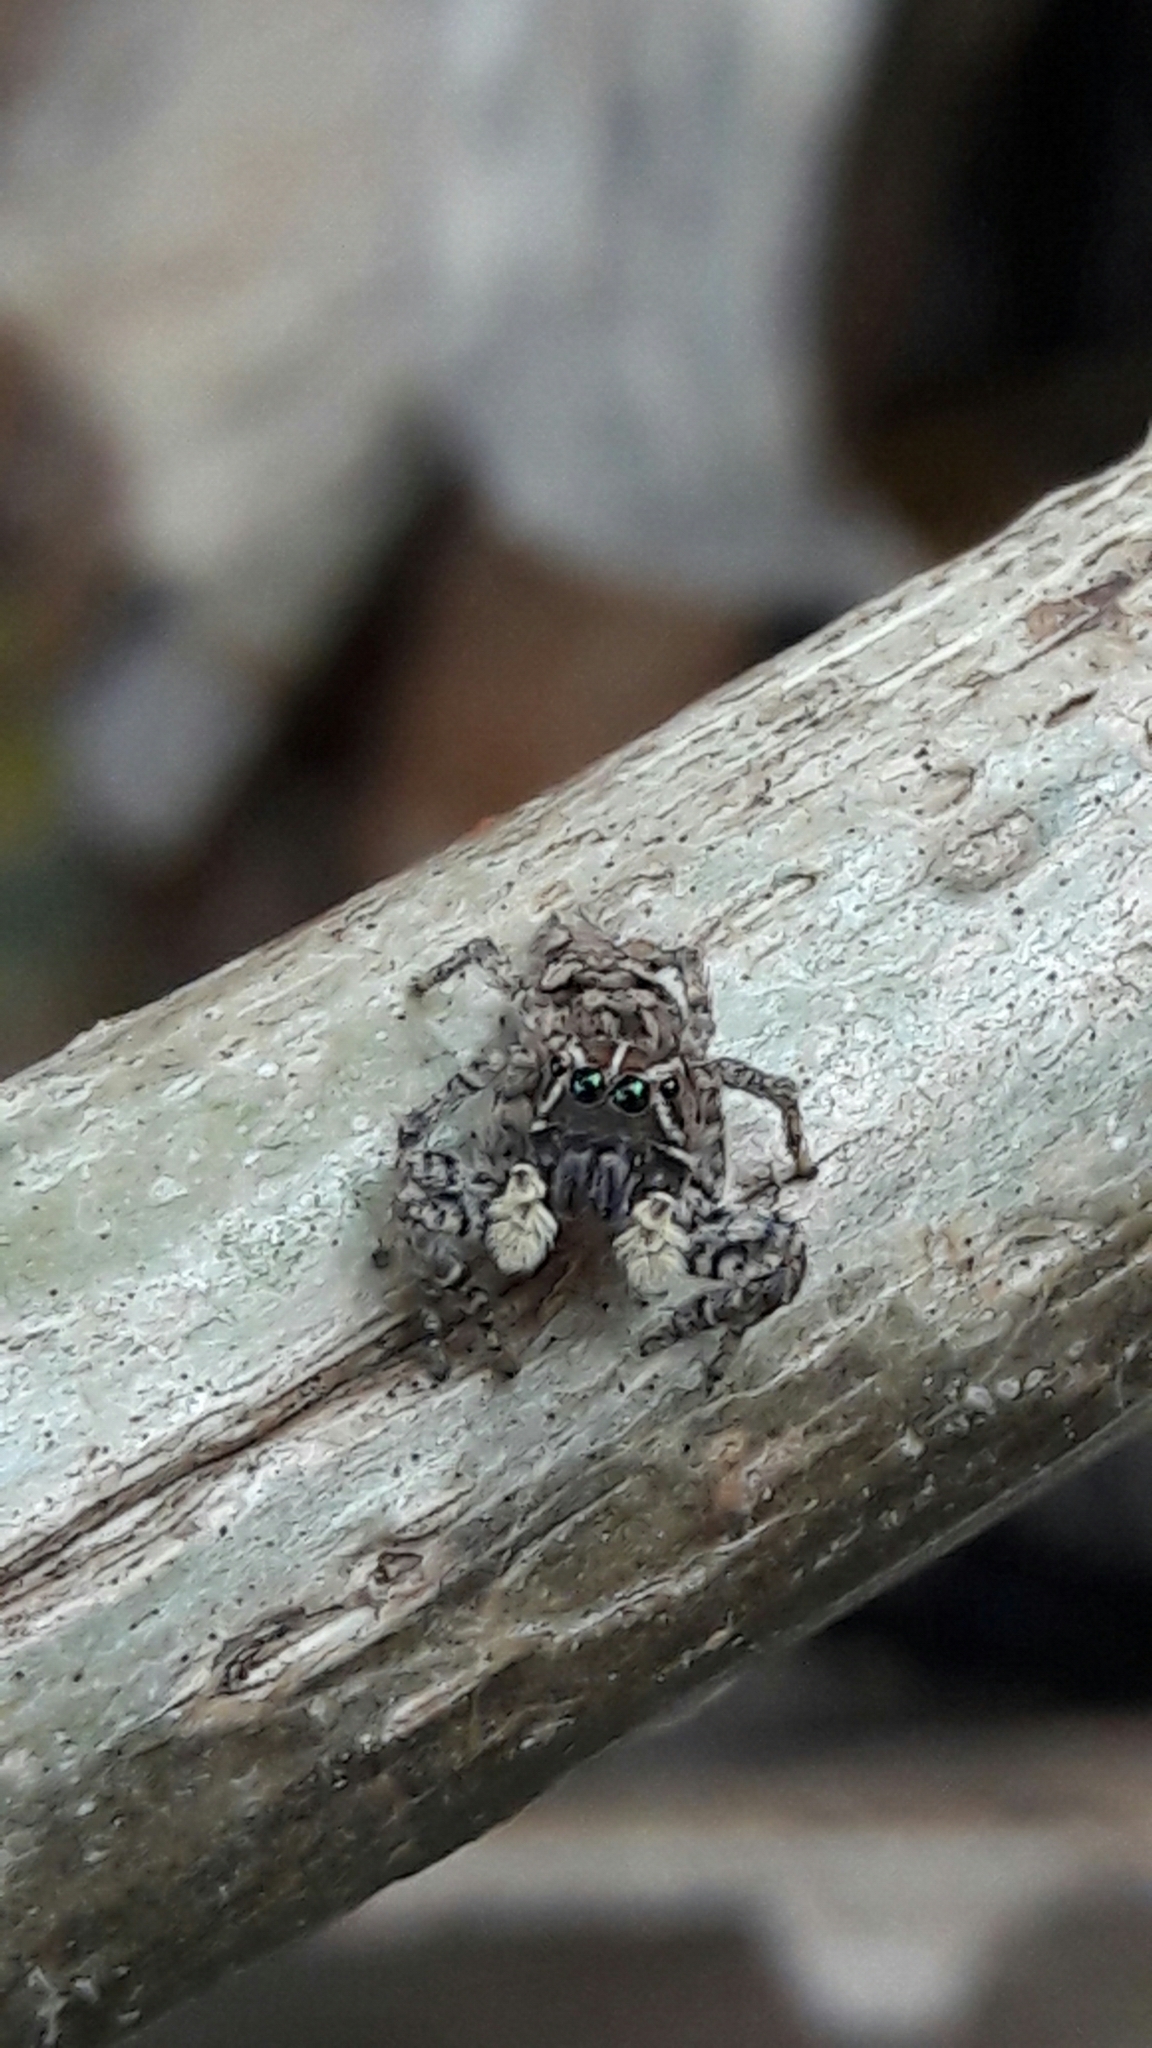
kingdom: Animalia
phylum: Arthropoda
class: Arachnida
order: Araneae
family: Salticidae
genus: Sumampattus
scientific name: Sumampattus quinqueradiatus
